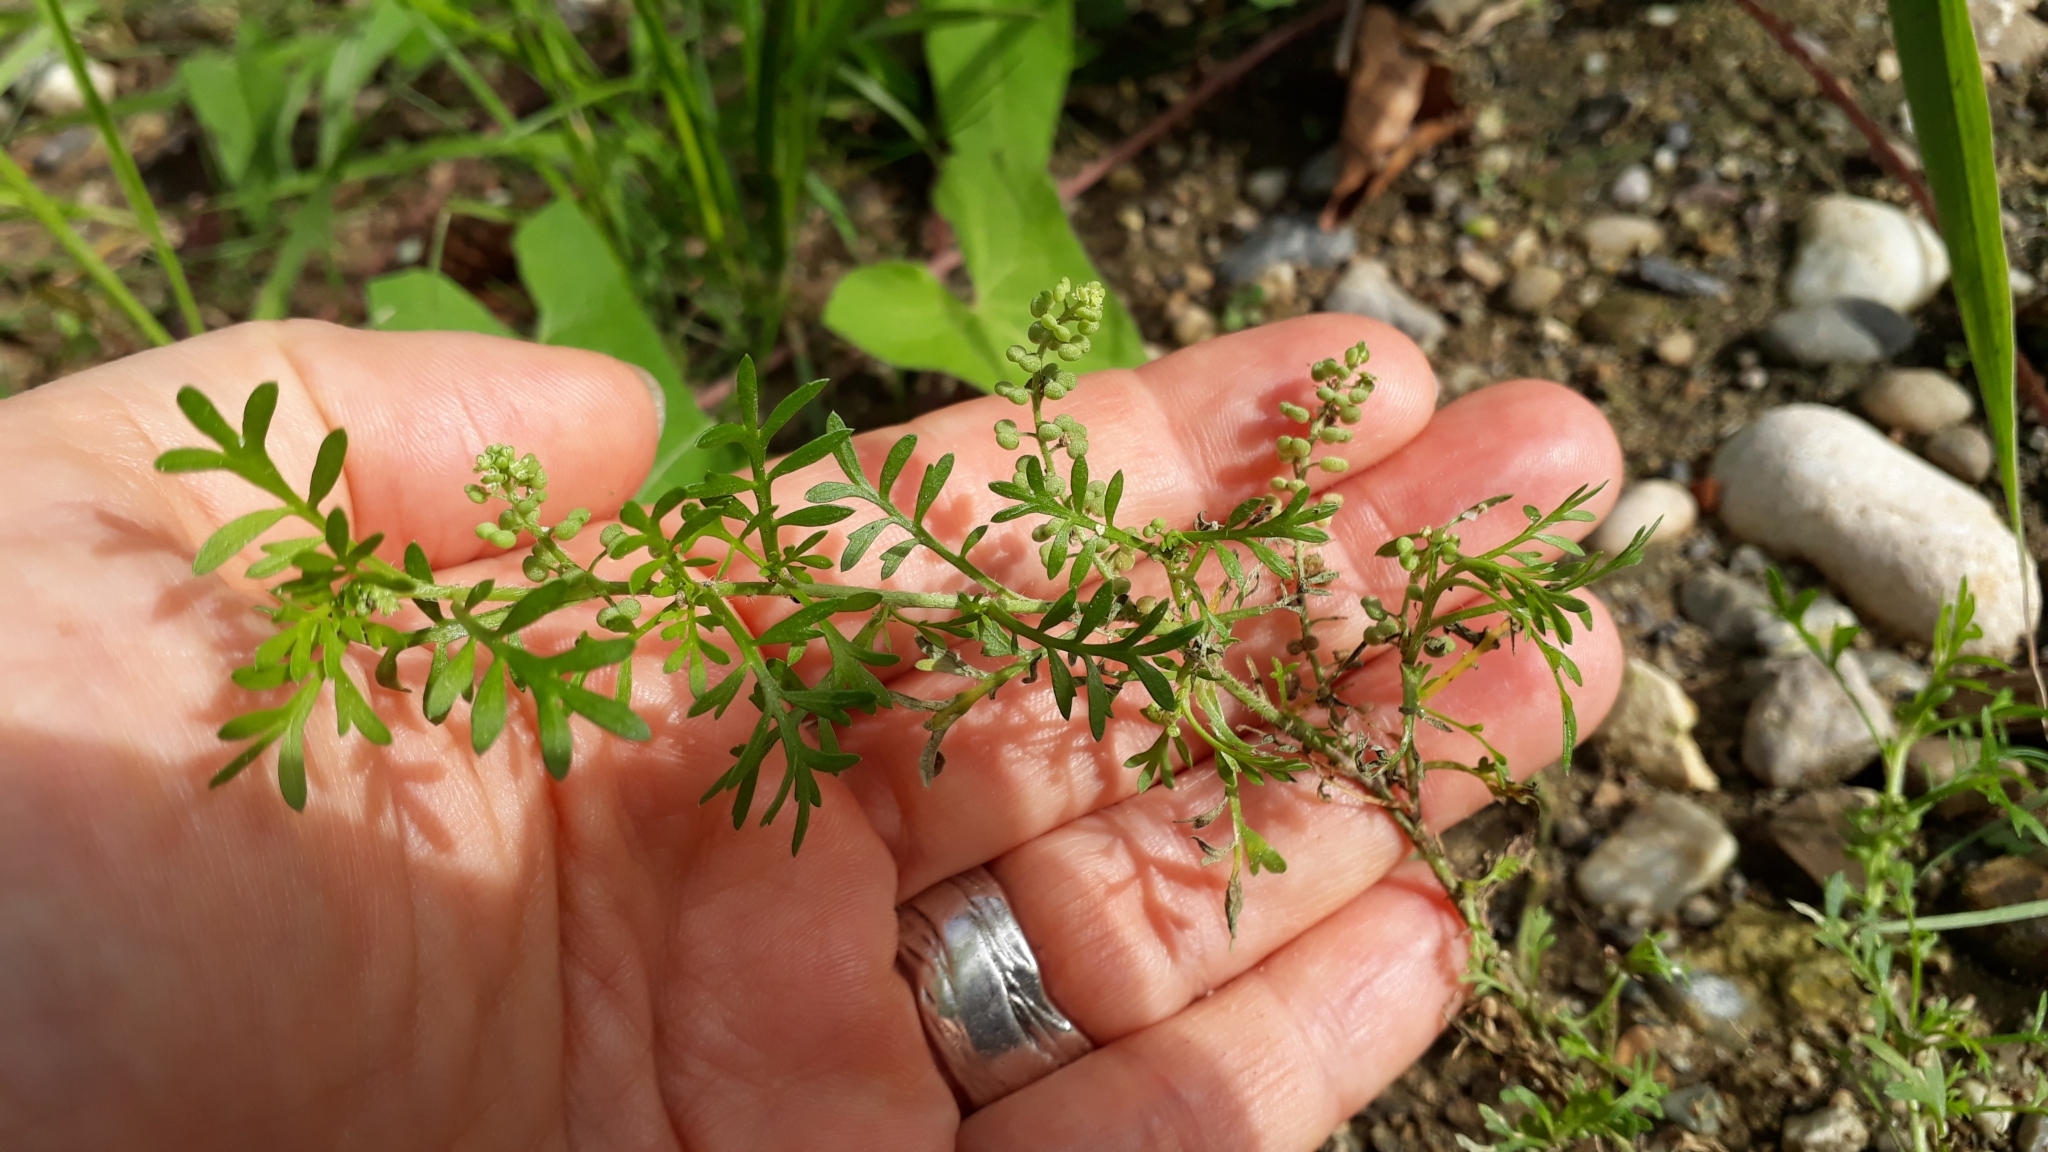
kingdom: Plantae
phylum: Tracheophyta
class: Magnoliopsida
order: Brassicales
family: Brassicaceae
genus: Lepidium
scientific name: Lepidium didymum
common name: Lesser swinecress
